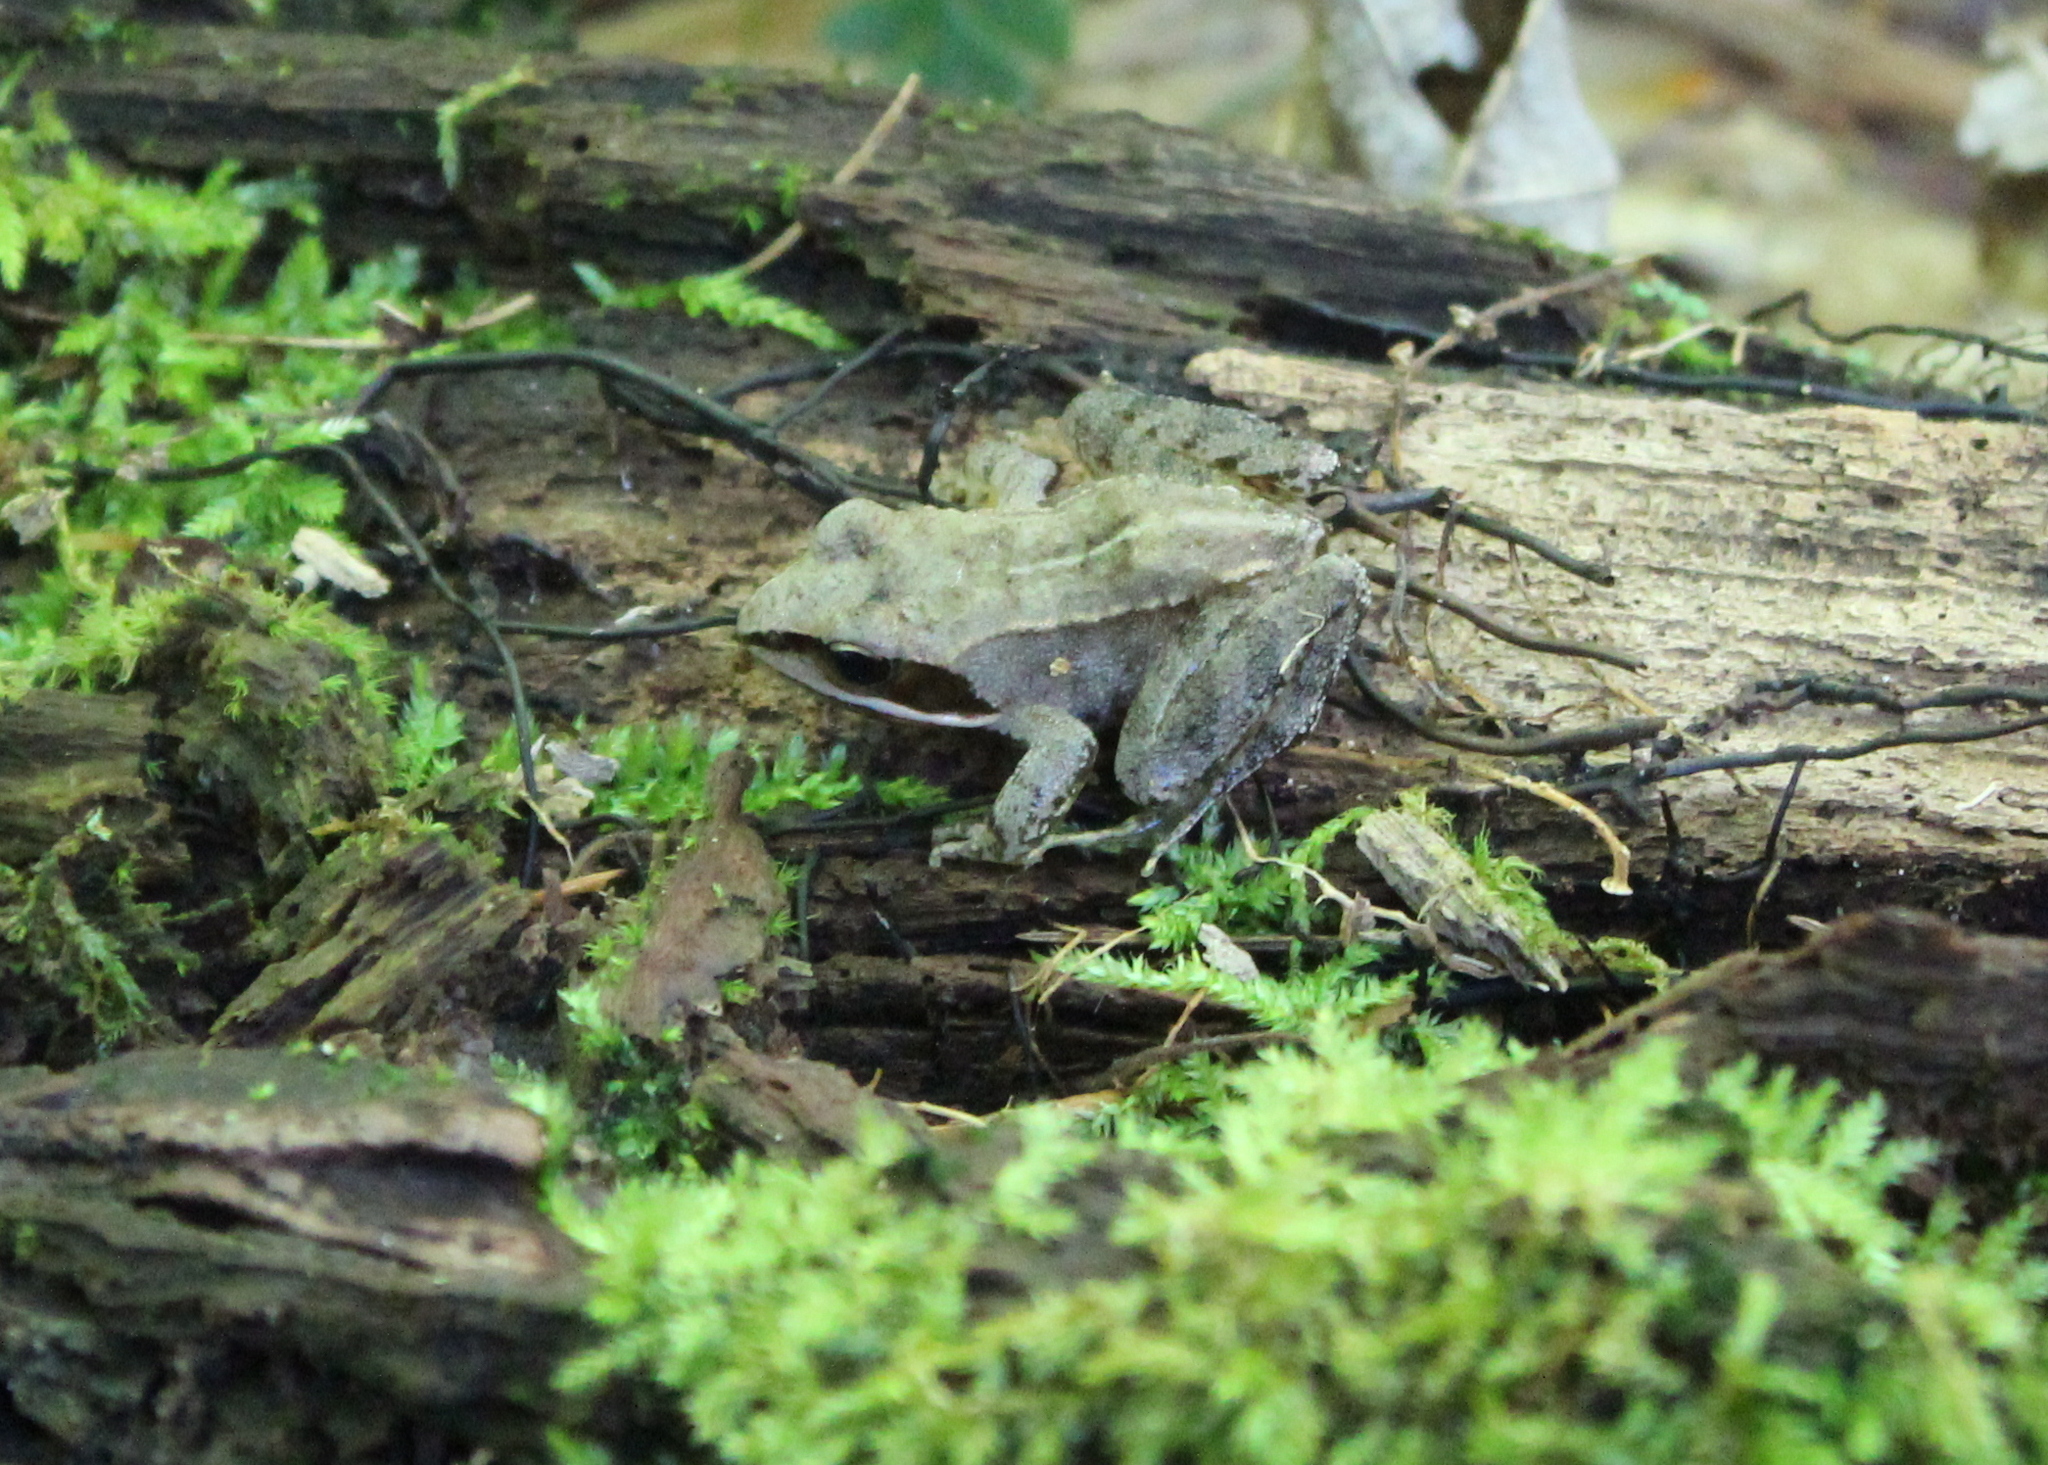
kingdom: Animalia
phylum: Chordata
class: Amphibia
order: Anura
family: Ranidae
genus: Lithobates
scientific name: Lithobates sylvaticus
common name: Wood frog
